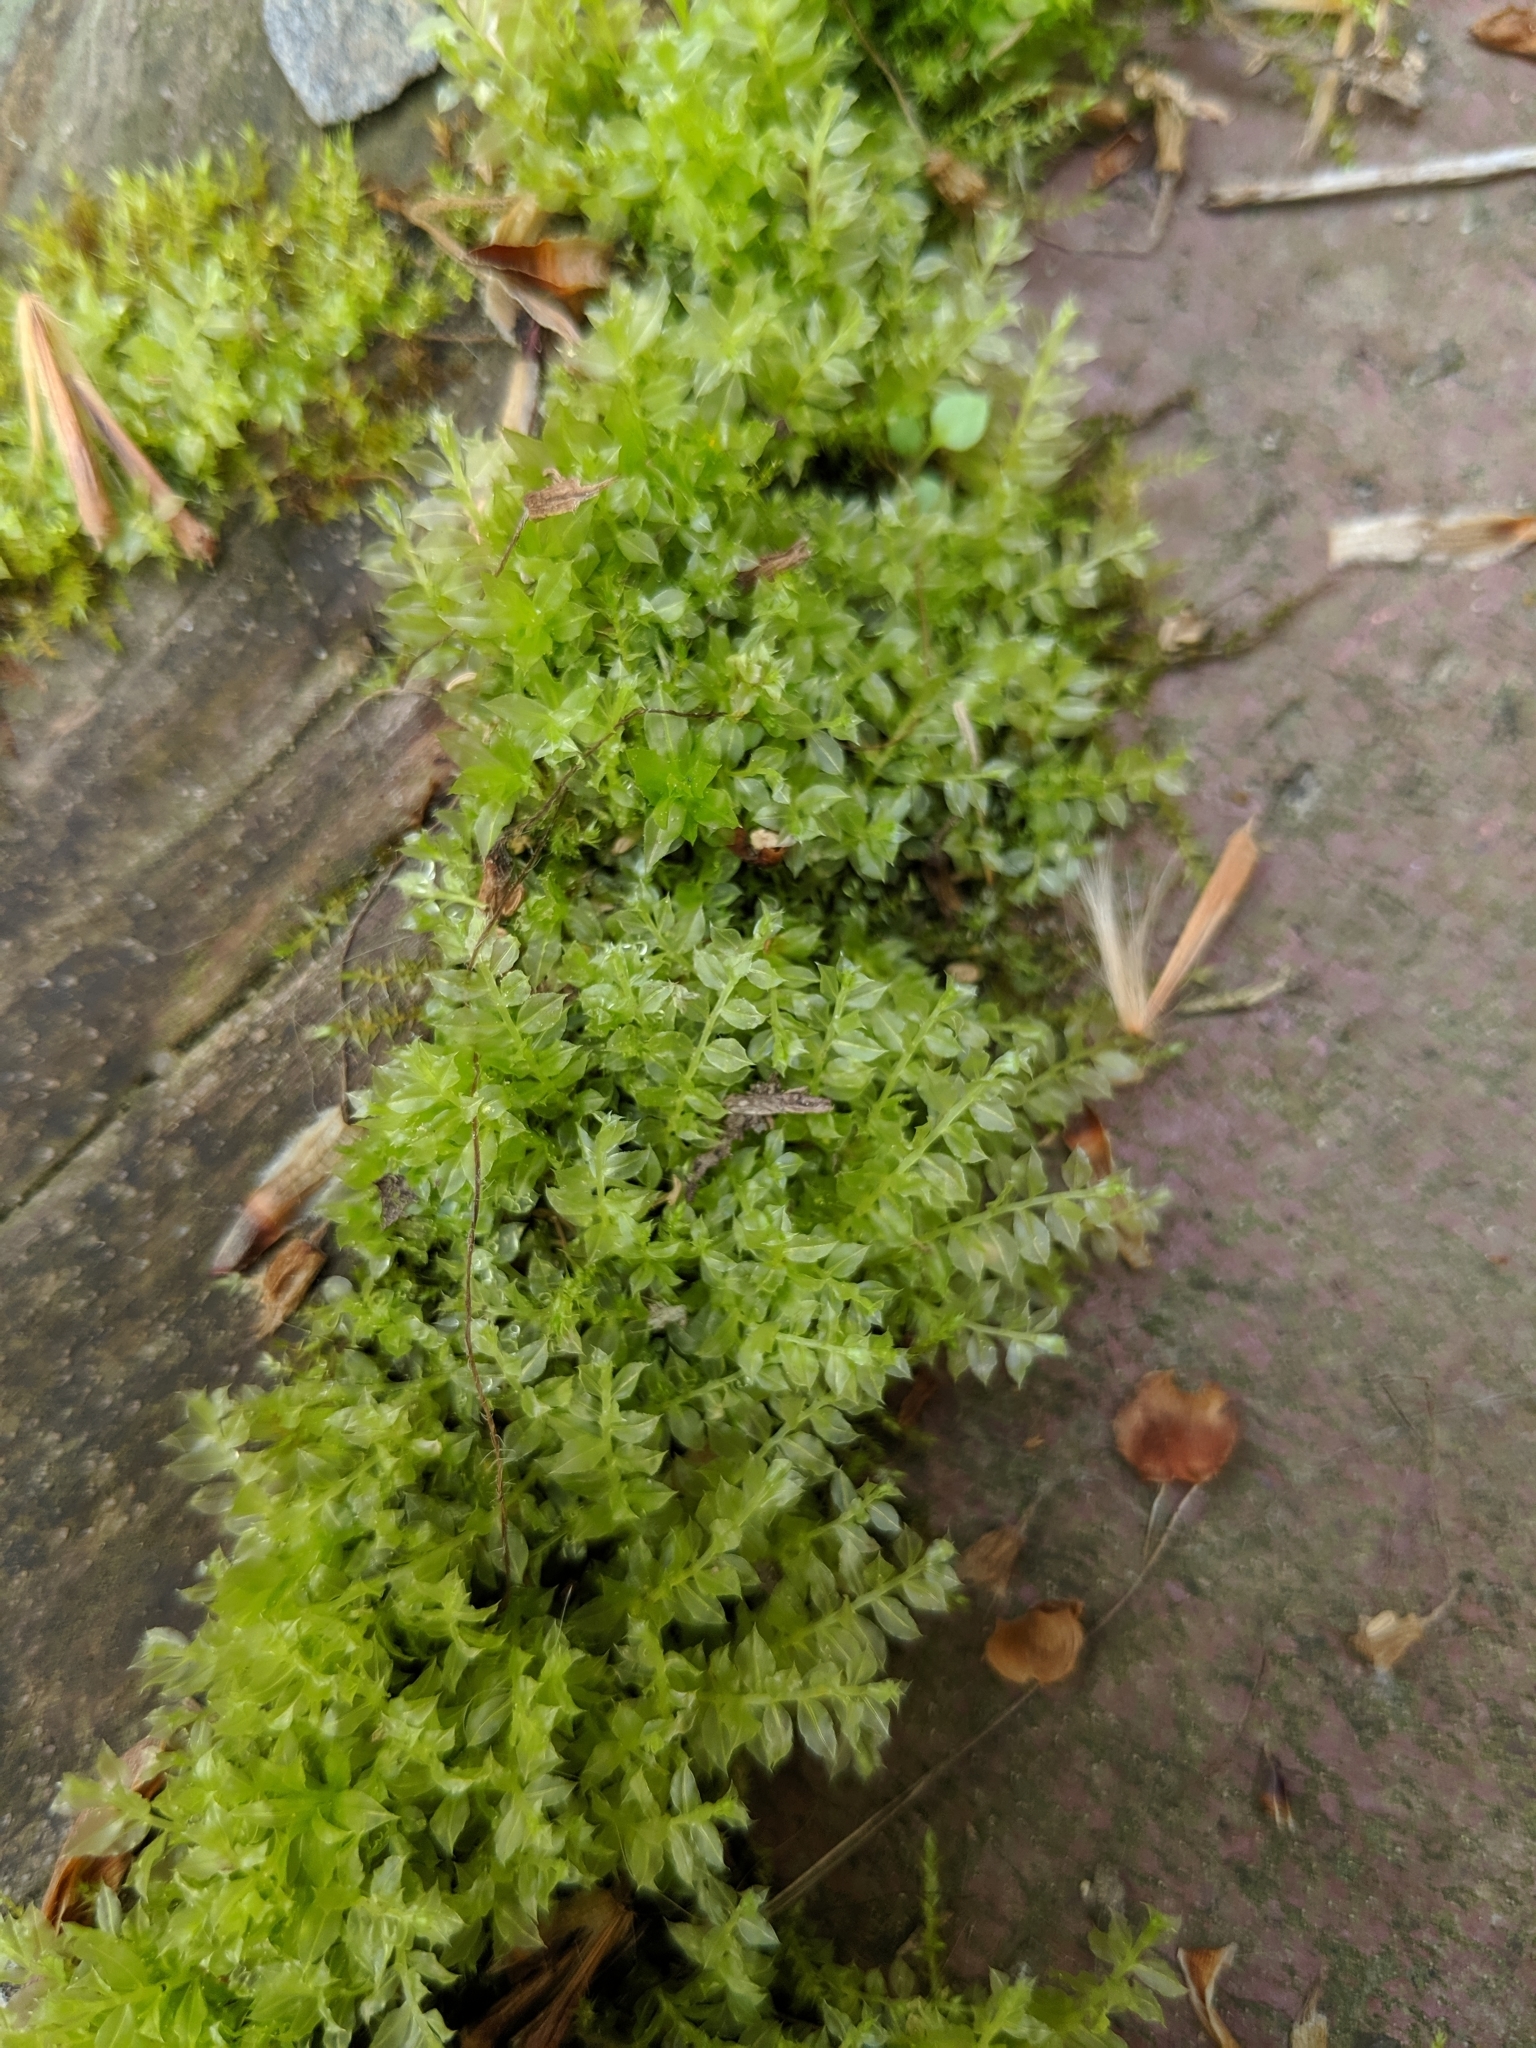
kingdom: Plantae
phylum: Bryophyta
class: Bryopsida
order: Bryales
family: Mniaceae
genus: Plagiomnium
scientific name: Plagiomnium cuspidatum
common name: Woodsy leafy moss
